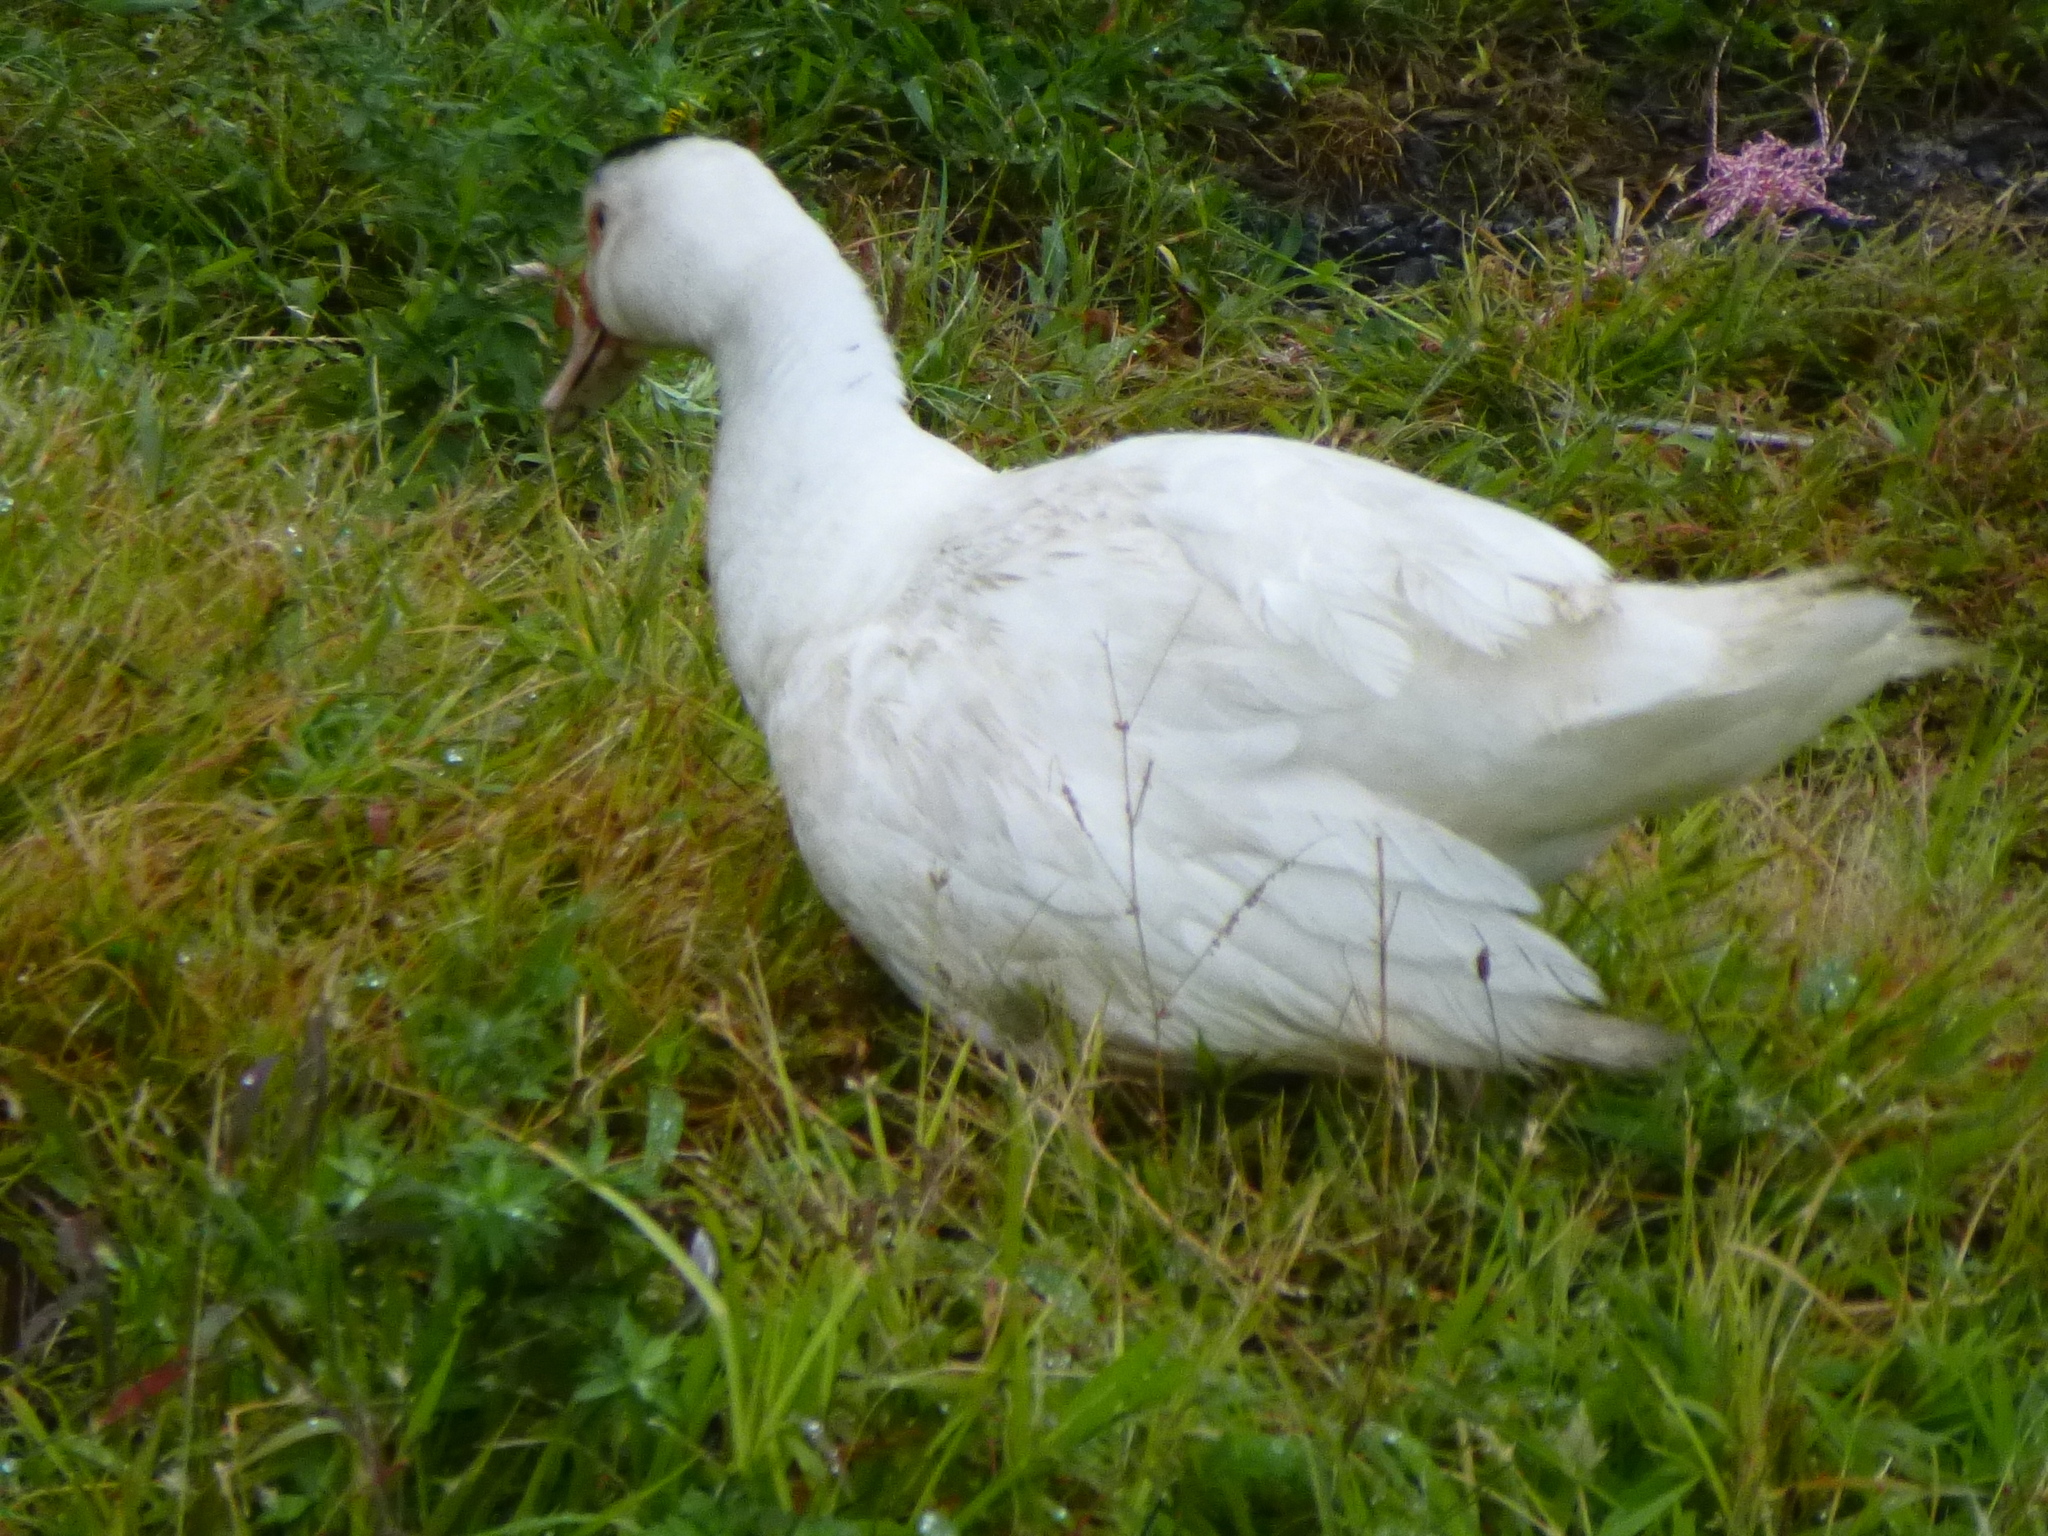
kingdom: Animalia
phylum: Chordata
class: Aves
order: Anseriformes
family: Anatidae
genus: Cairina
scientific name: Cairina moschata
